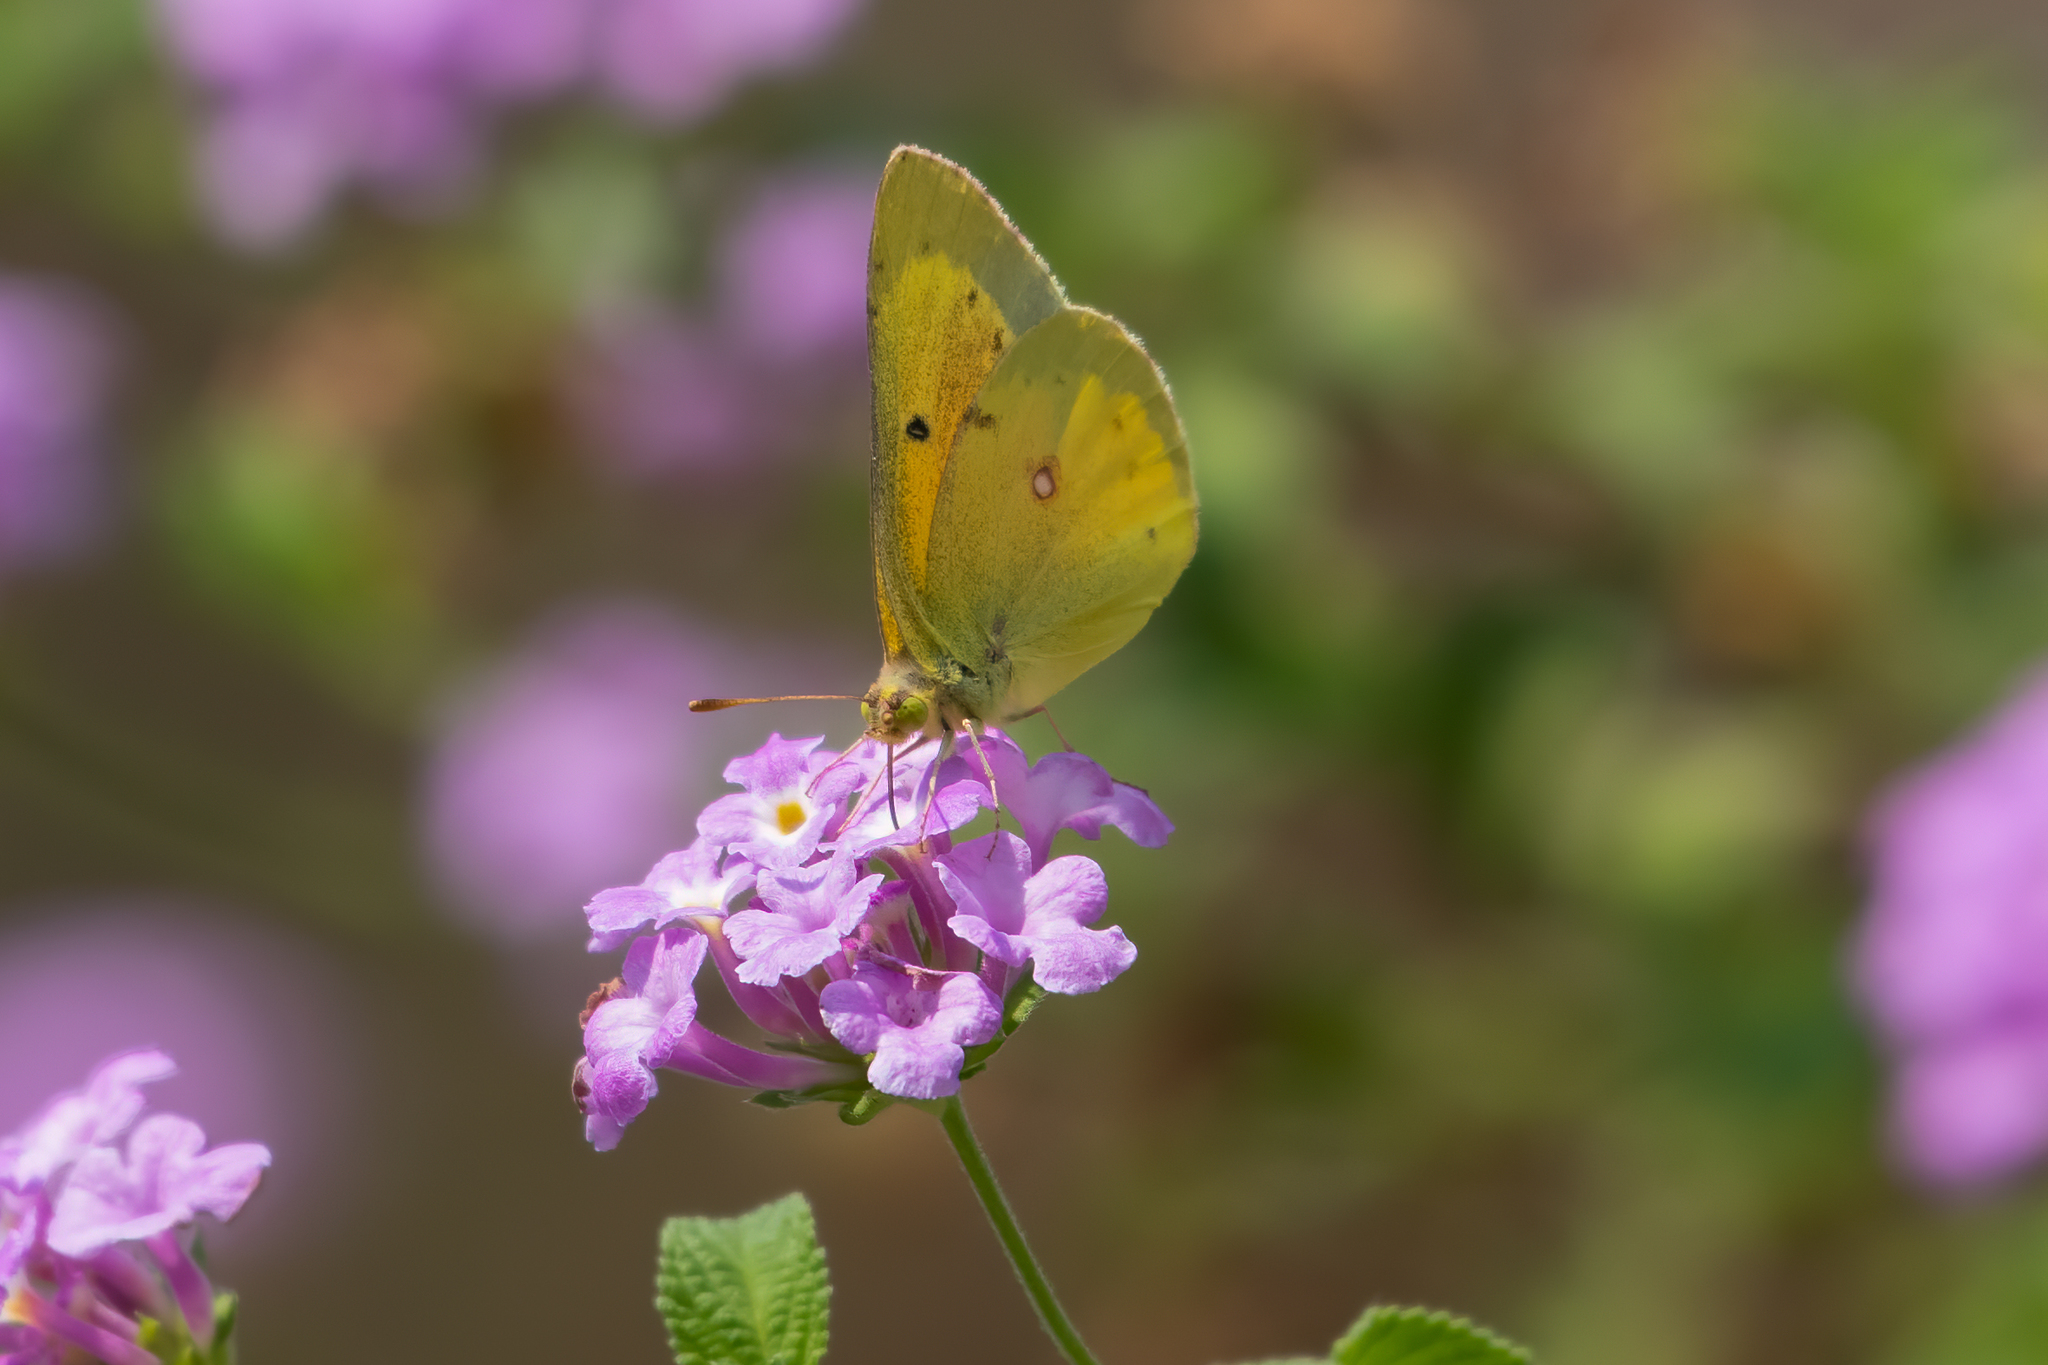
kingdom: Animalia
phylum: Arthropoda
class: Insecta
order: Lepidoptera
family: Pieridae
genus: Colias
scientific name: Colias eurytheme
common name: Alfalfa butterfly
